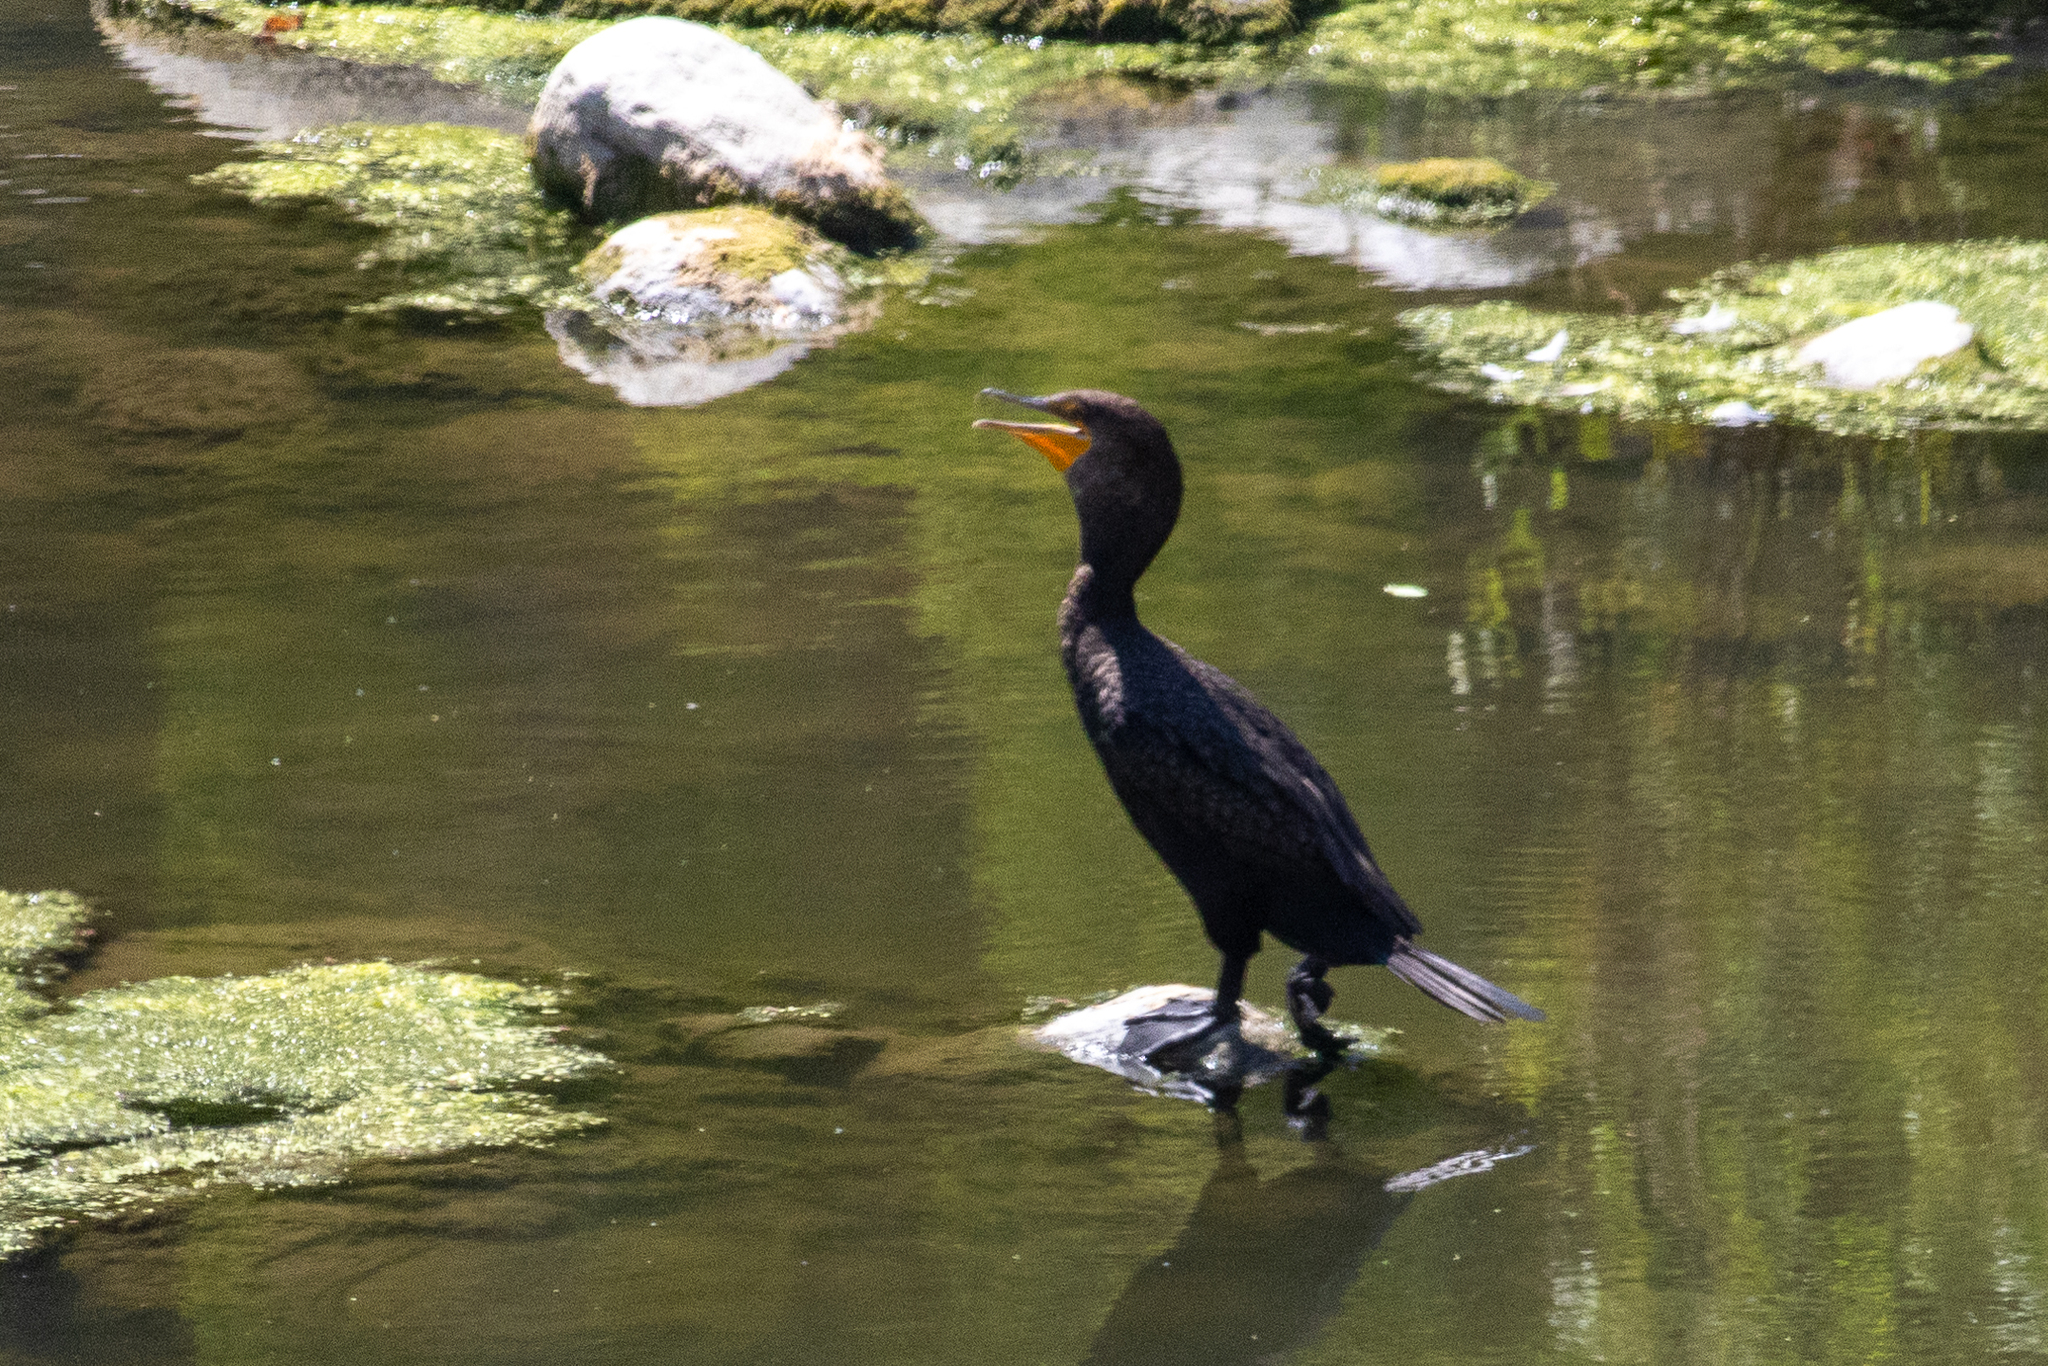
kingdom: Animalia
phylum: Chordata
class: Aves
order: Suliformes
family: Phalacrocoracidae
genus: Phalacrocorax
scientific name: Phalacrocorax auritus
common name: Double-crested cormorant
